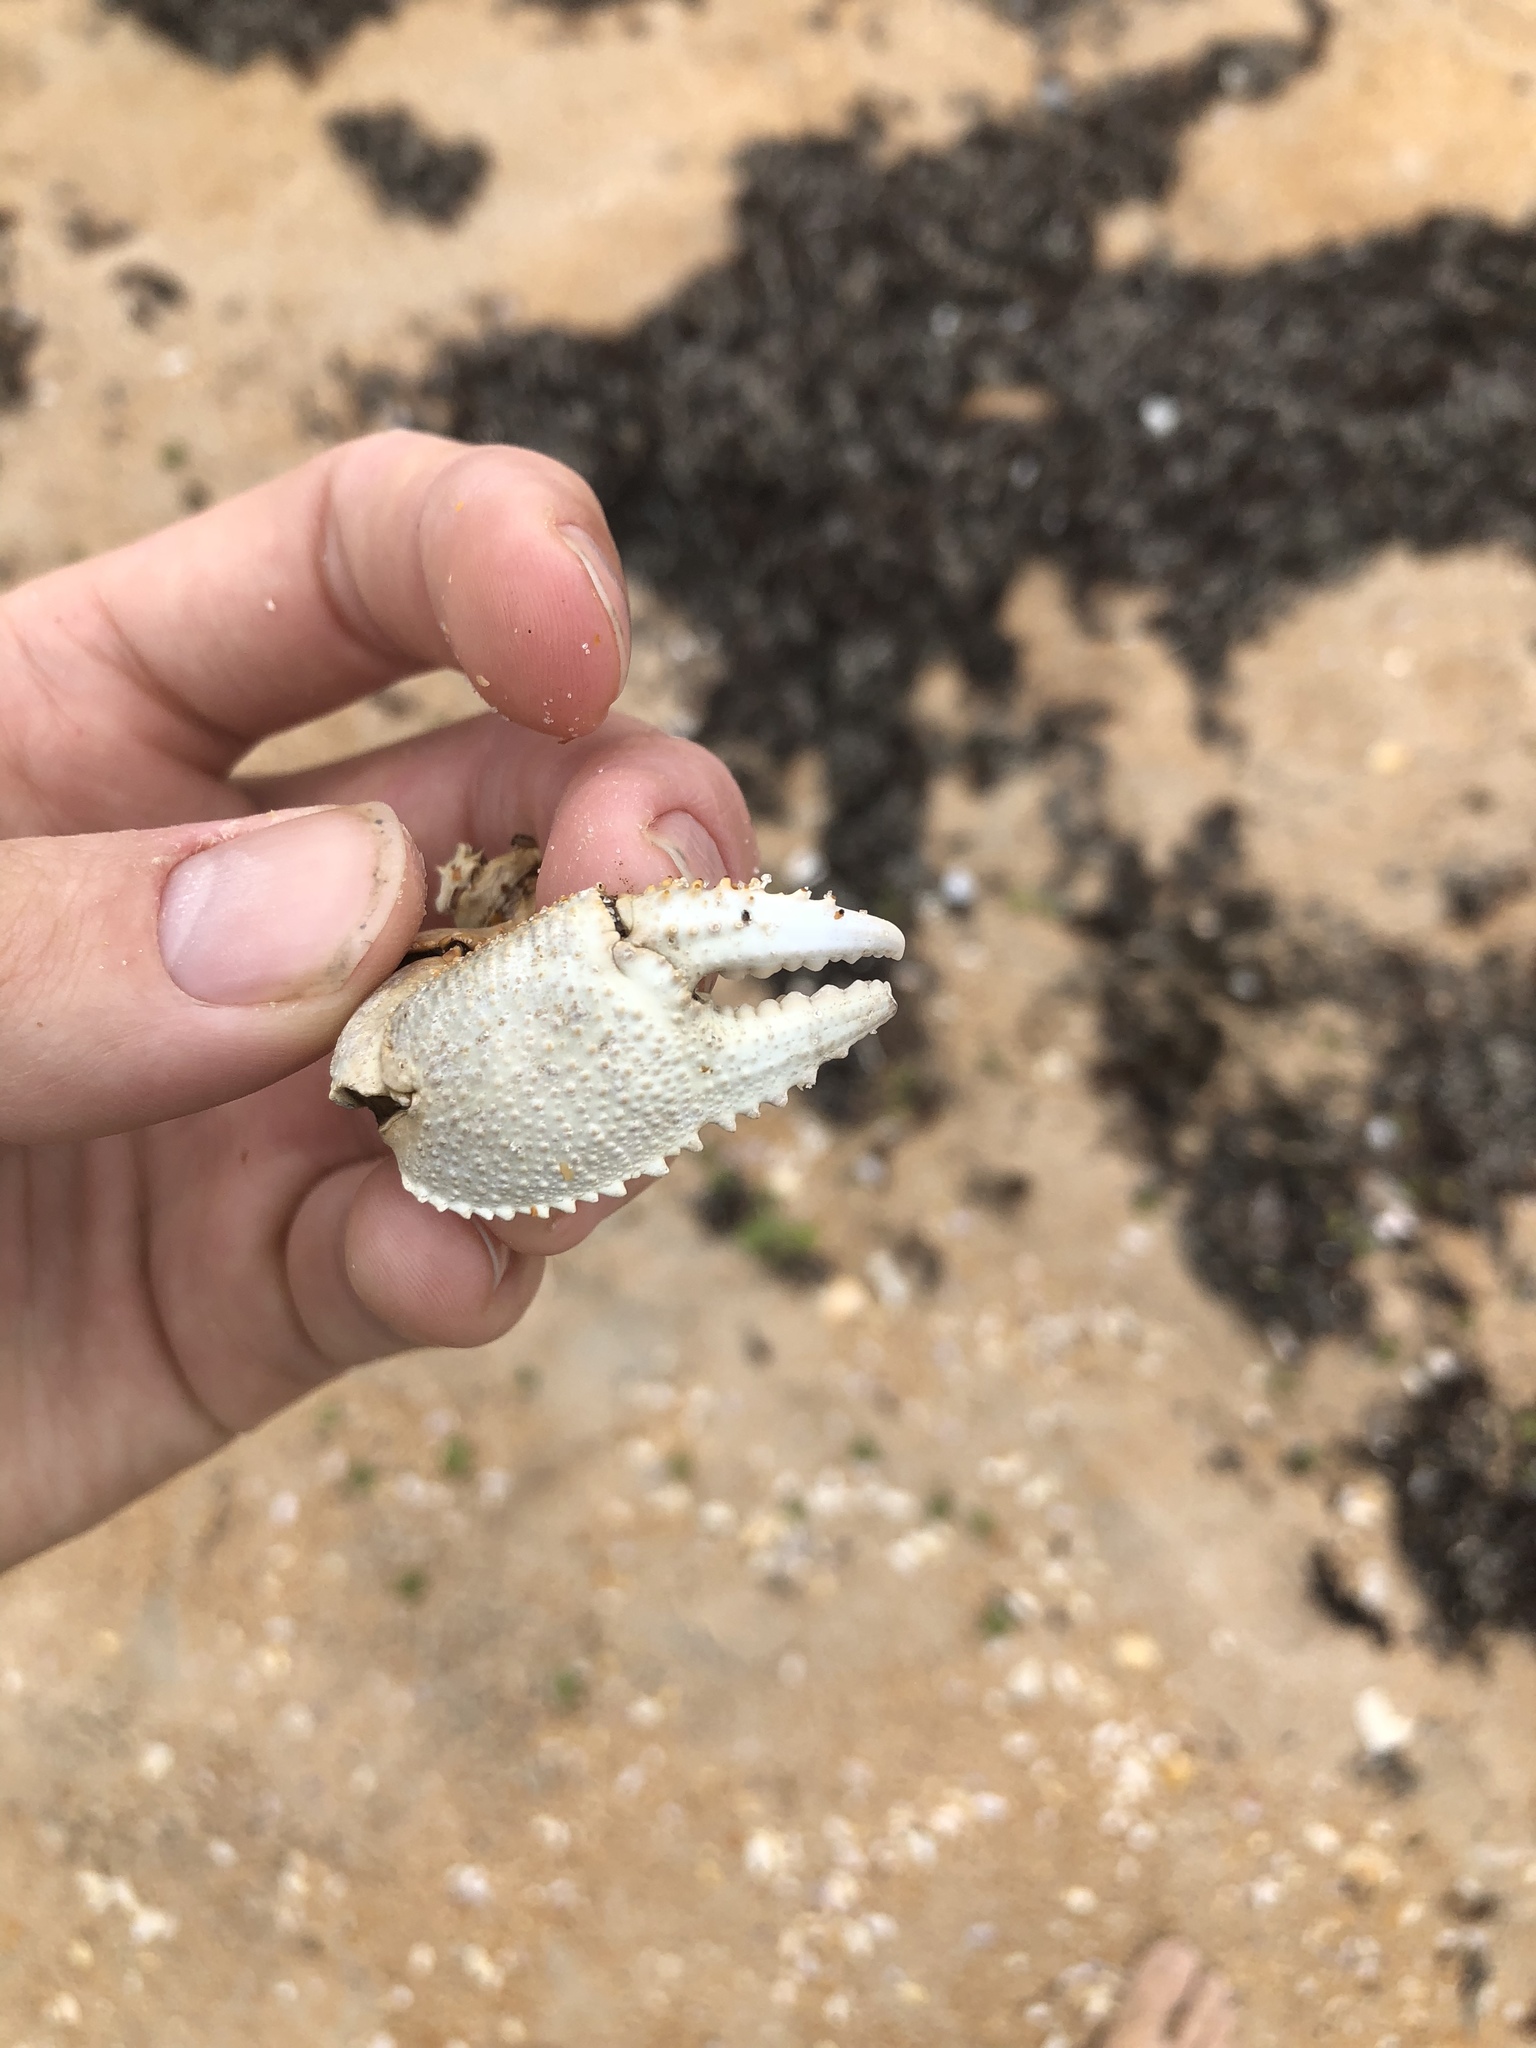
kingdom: Animalia
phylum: Arthropoda
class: Malacostraca
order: Decapoda
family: Ocypodidae
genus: Ocypode
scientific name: Ocypode quadrata
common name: Ghost crab
